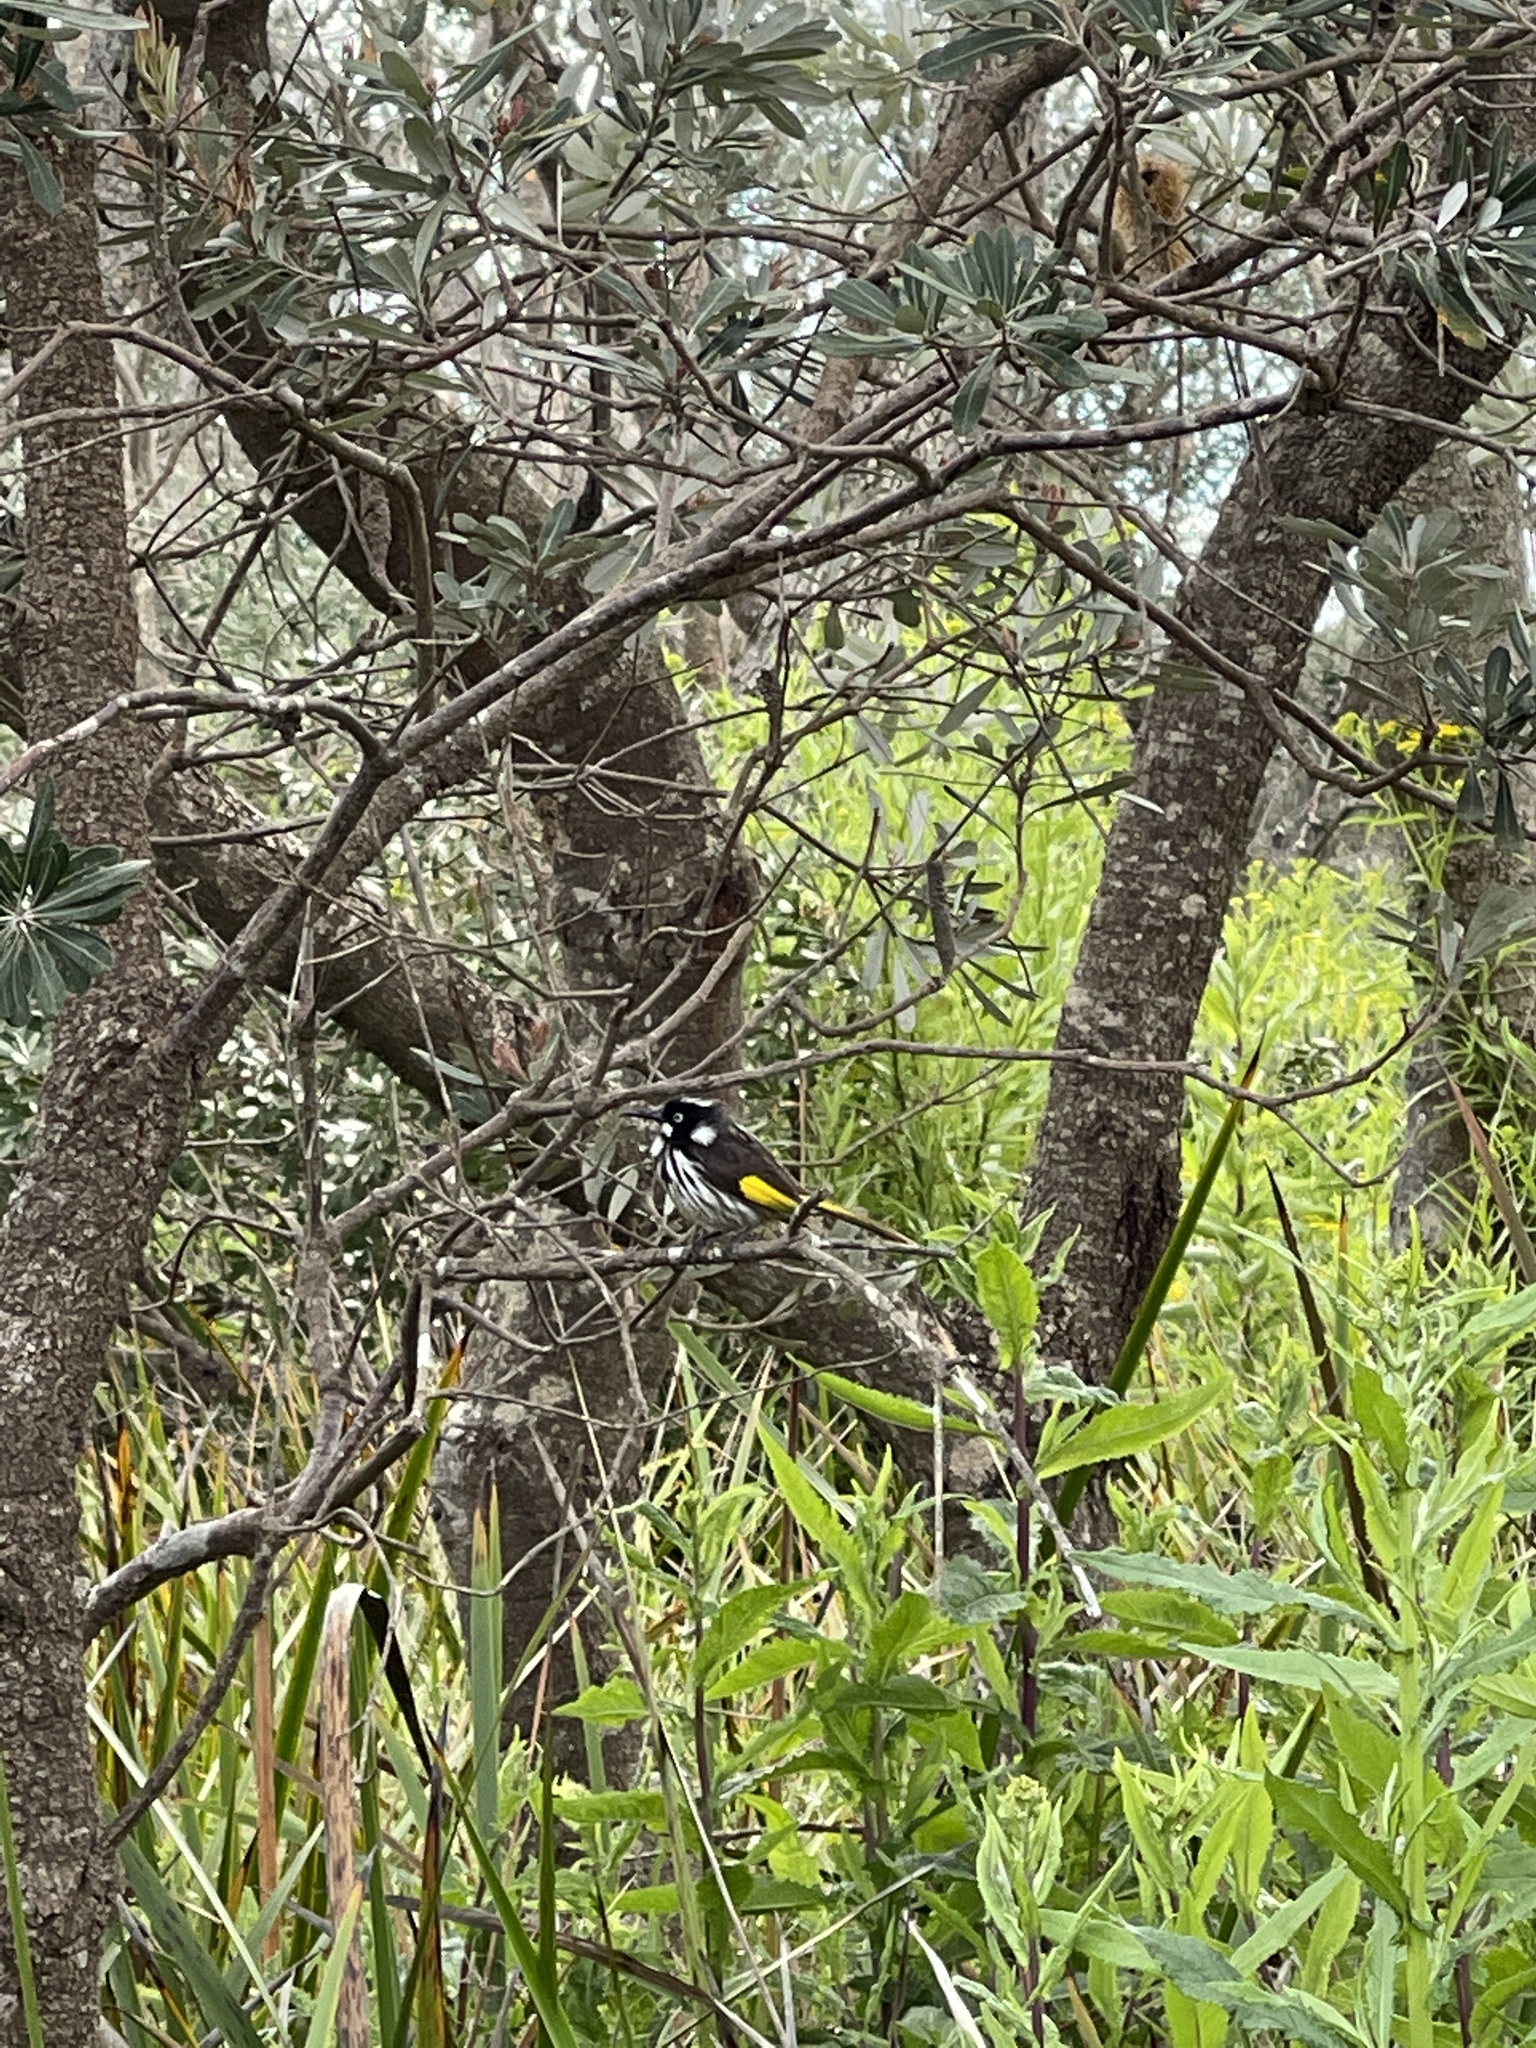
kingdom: Animalia
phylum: Chordata
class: Aves
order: Passeriformes
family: Meliphagidae
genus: Phylidonyris
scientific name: Phylidonyris novaehollandiae
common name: New holland honeyeater
